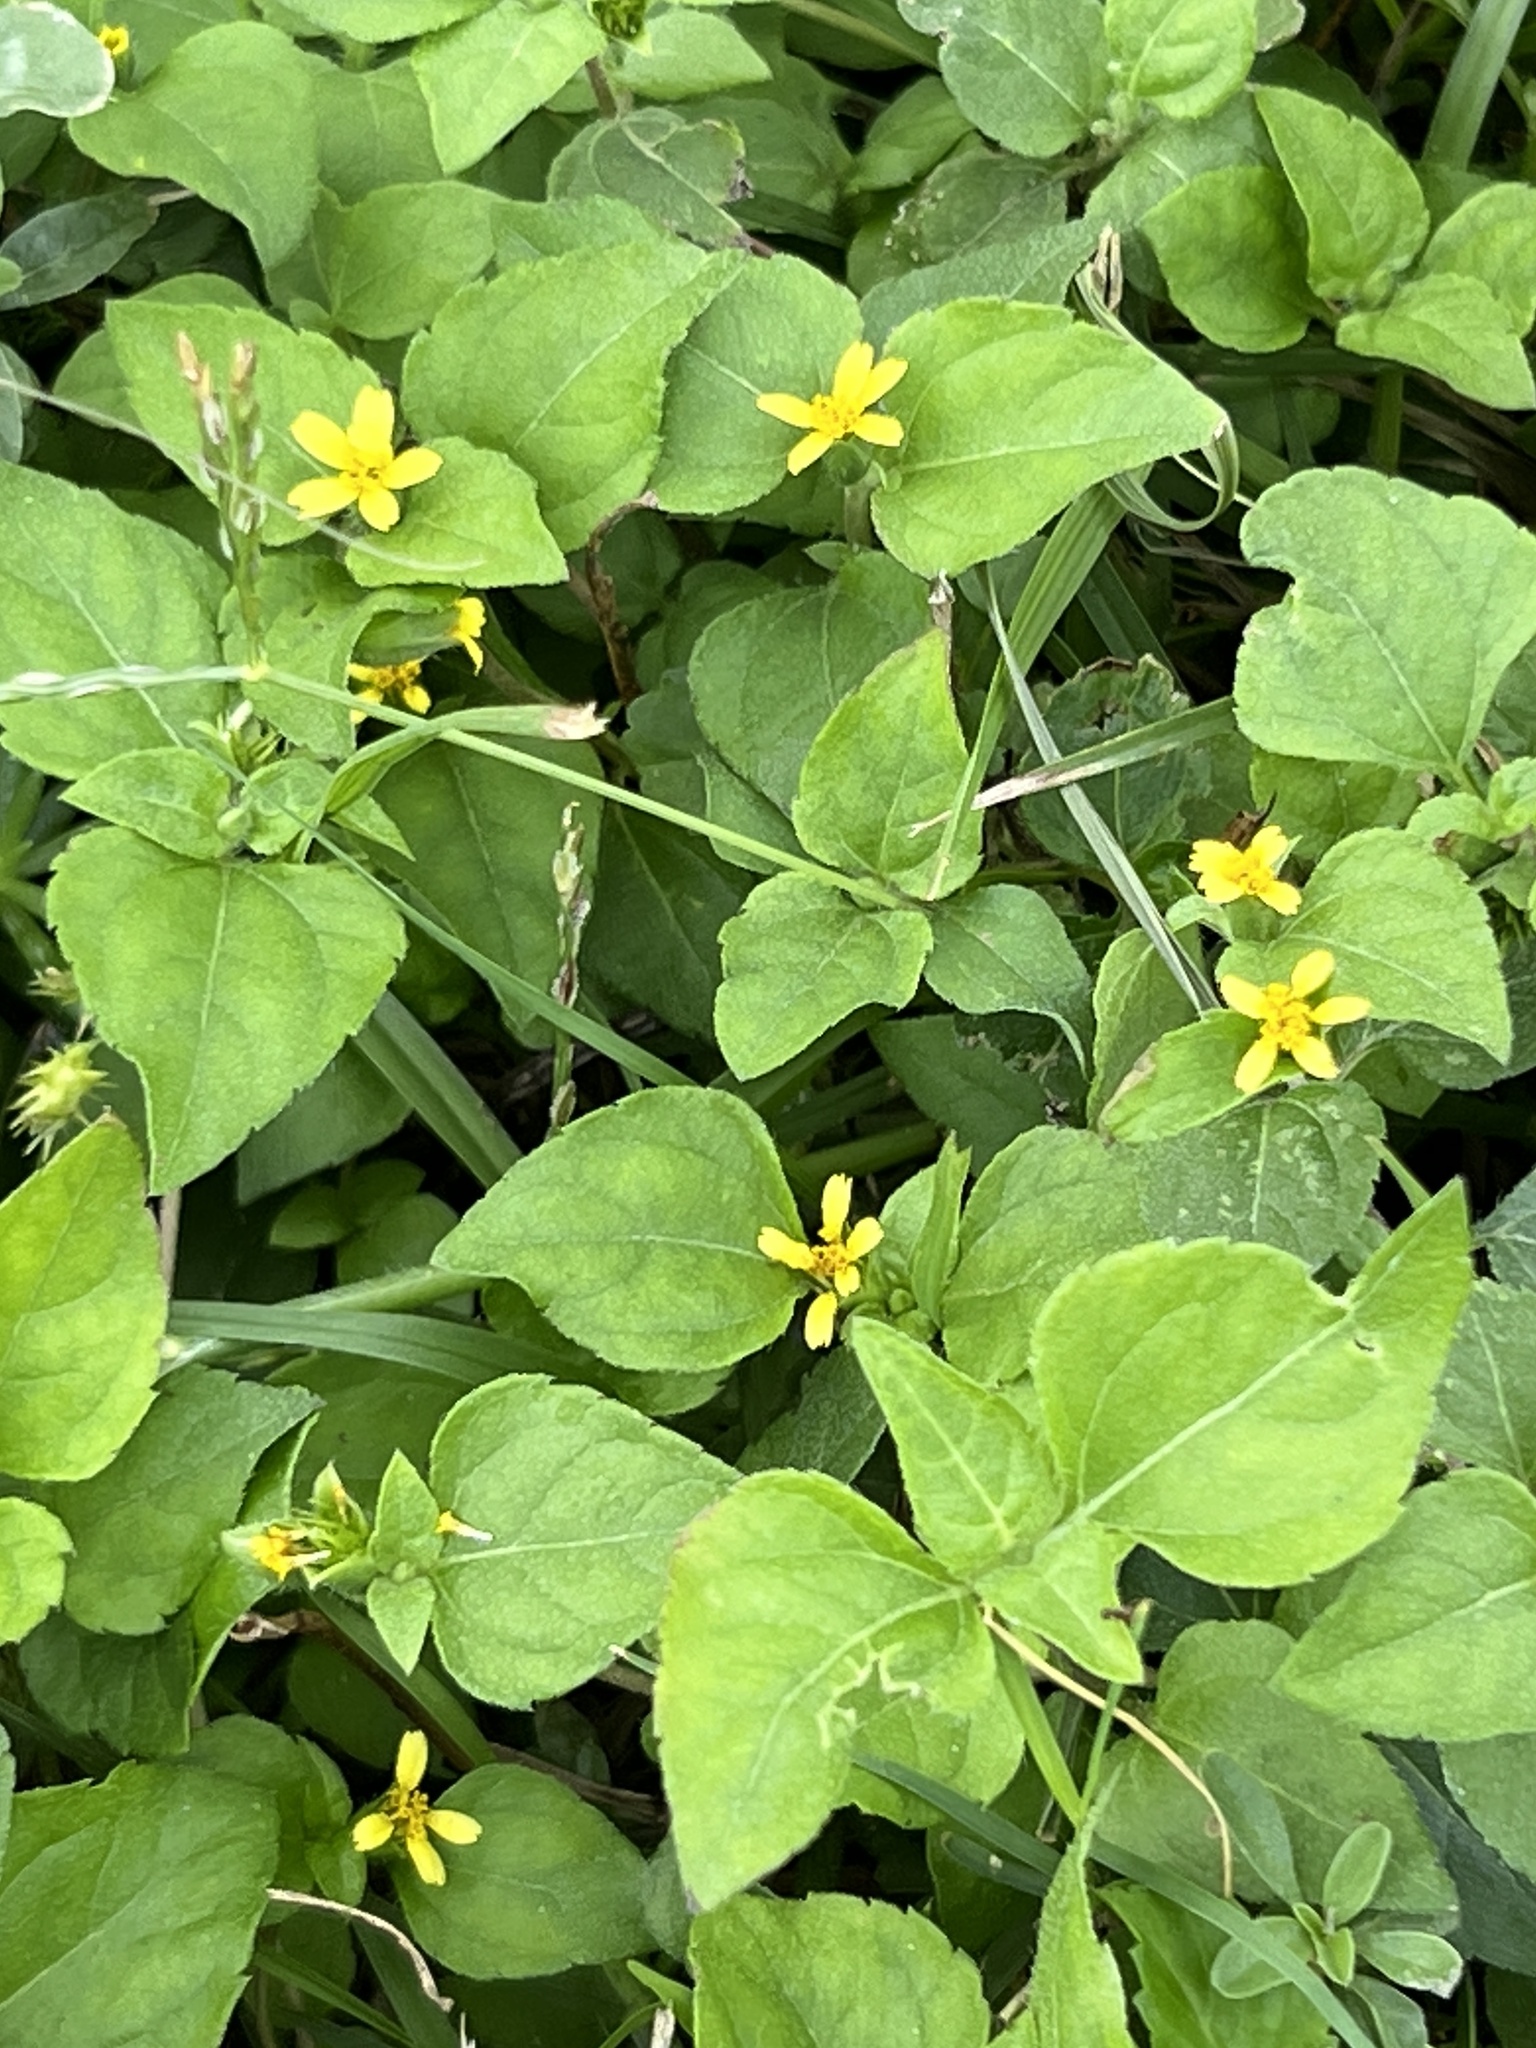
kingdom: Plantae
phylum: Tracheophyta
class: Magnoliopsida
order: Asterales
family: Asteraceae
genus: Calyptocarpus
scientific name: Calyptocarpus vialis
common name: Straggler daisy
